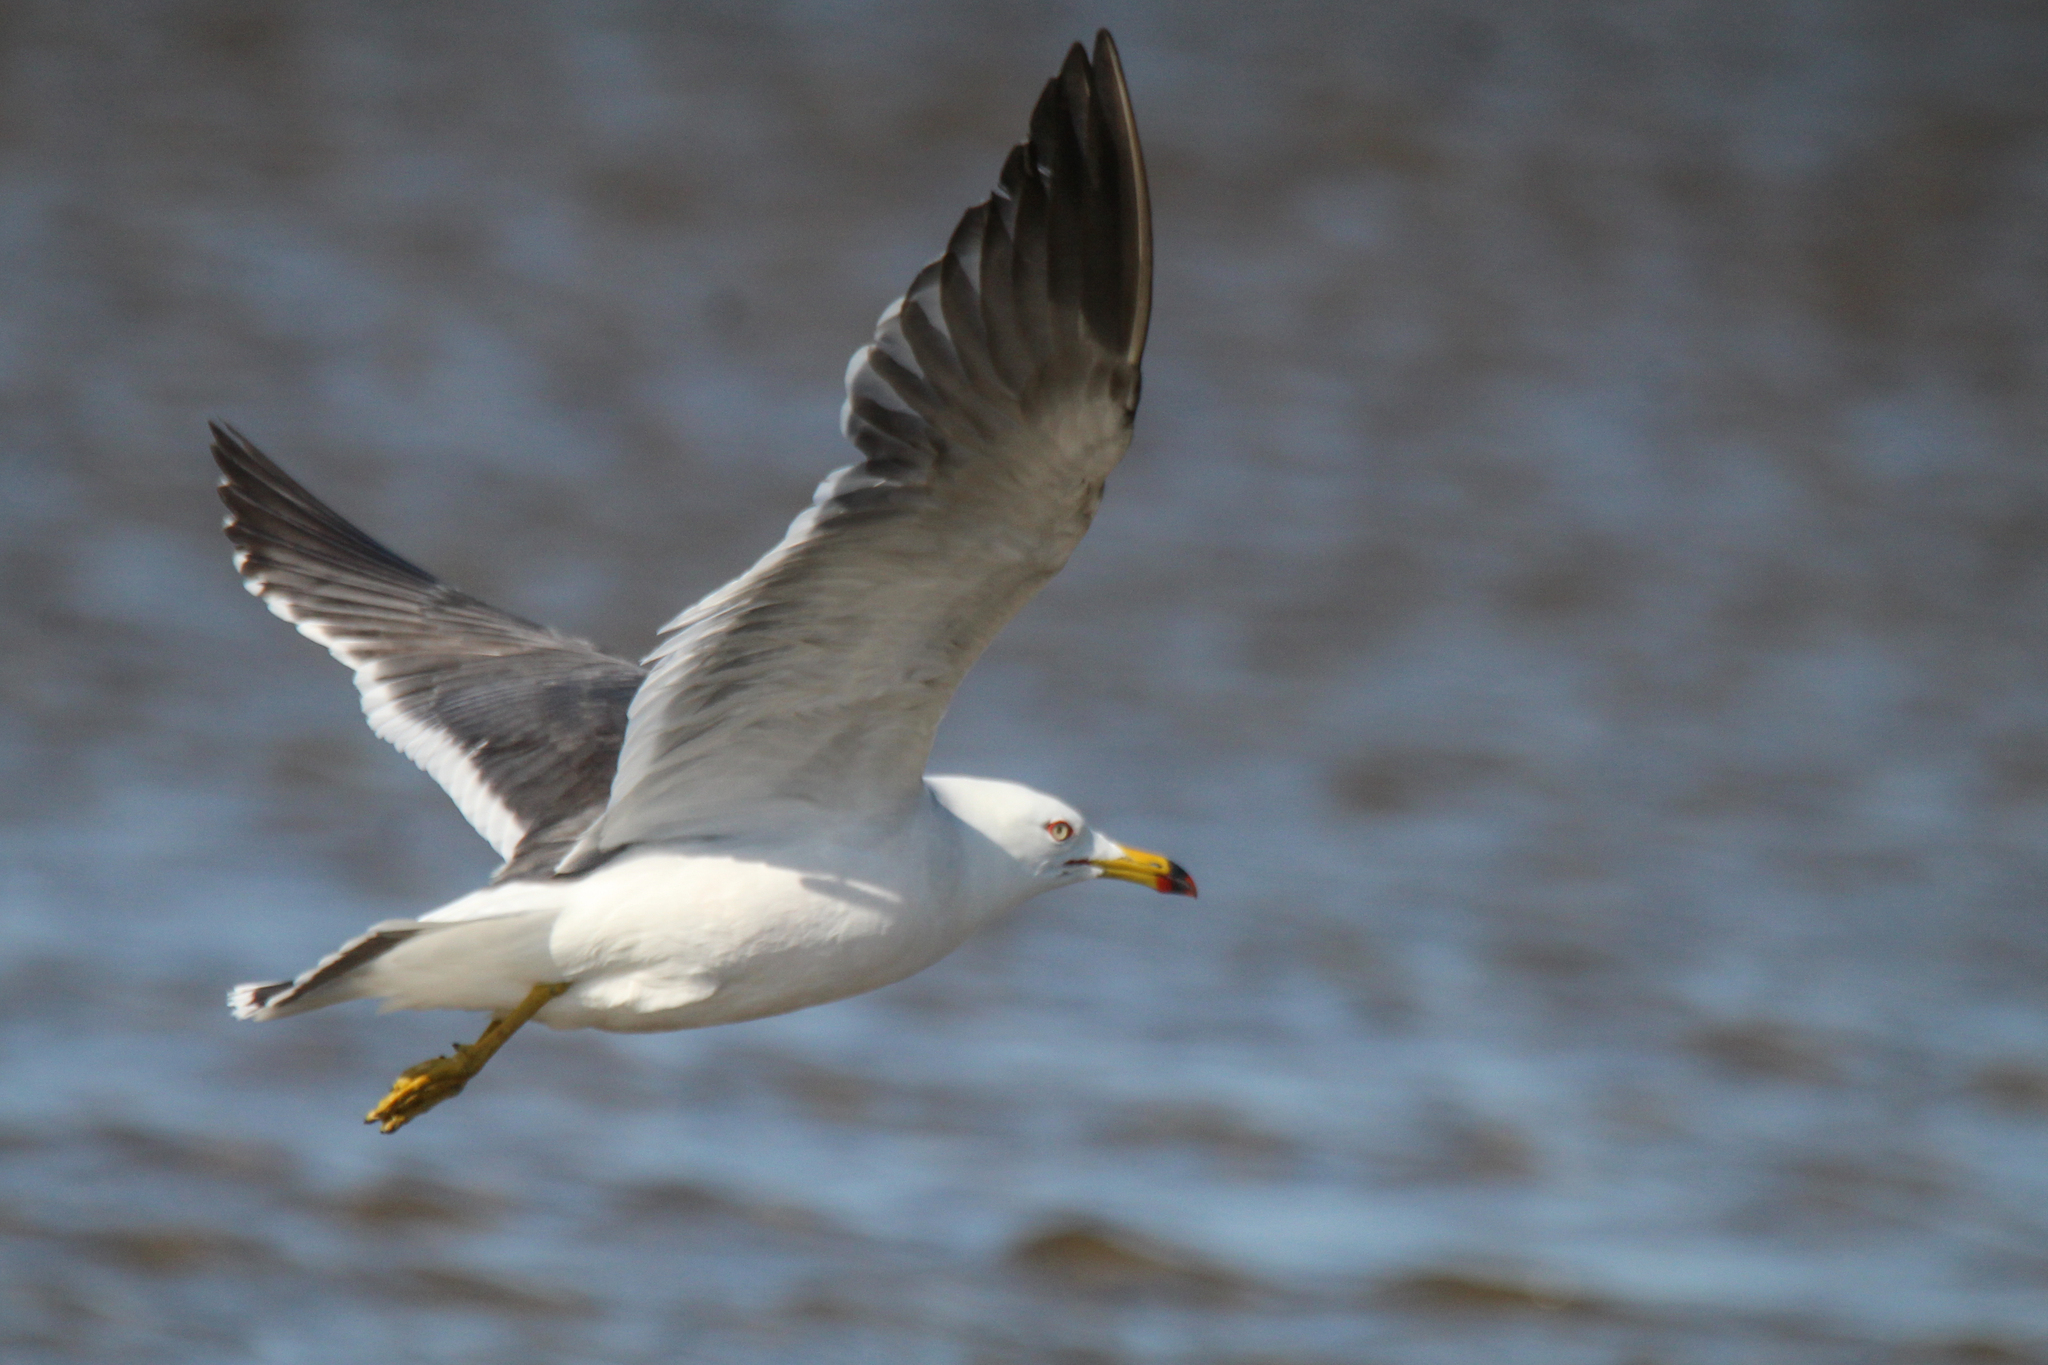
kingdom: Animalia
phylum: Chordata
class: Aves
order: Charadriiformes
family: Laridae
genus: Larus
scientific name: Larus crassirostris
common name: Black-tailed gull
